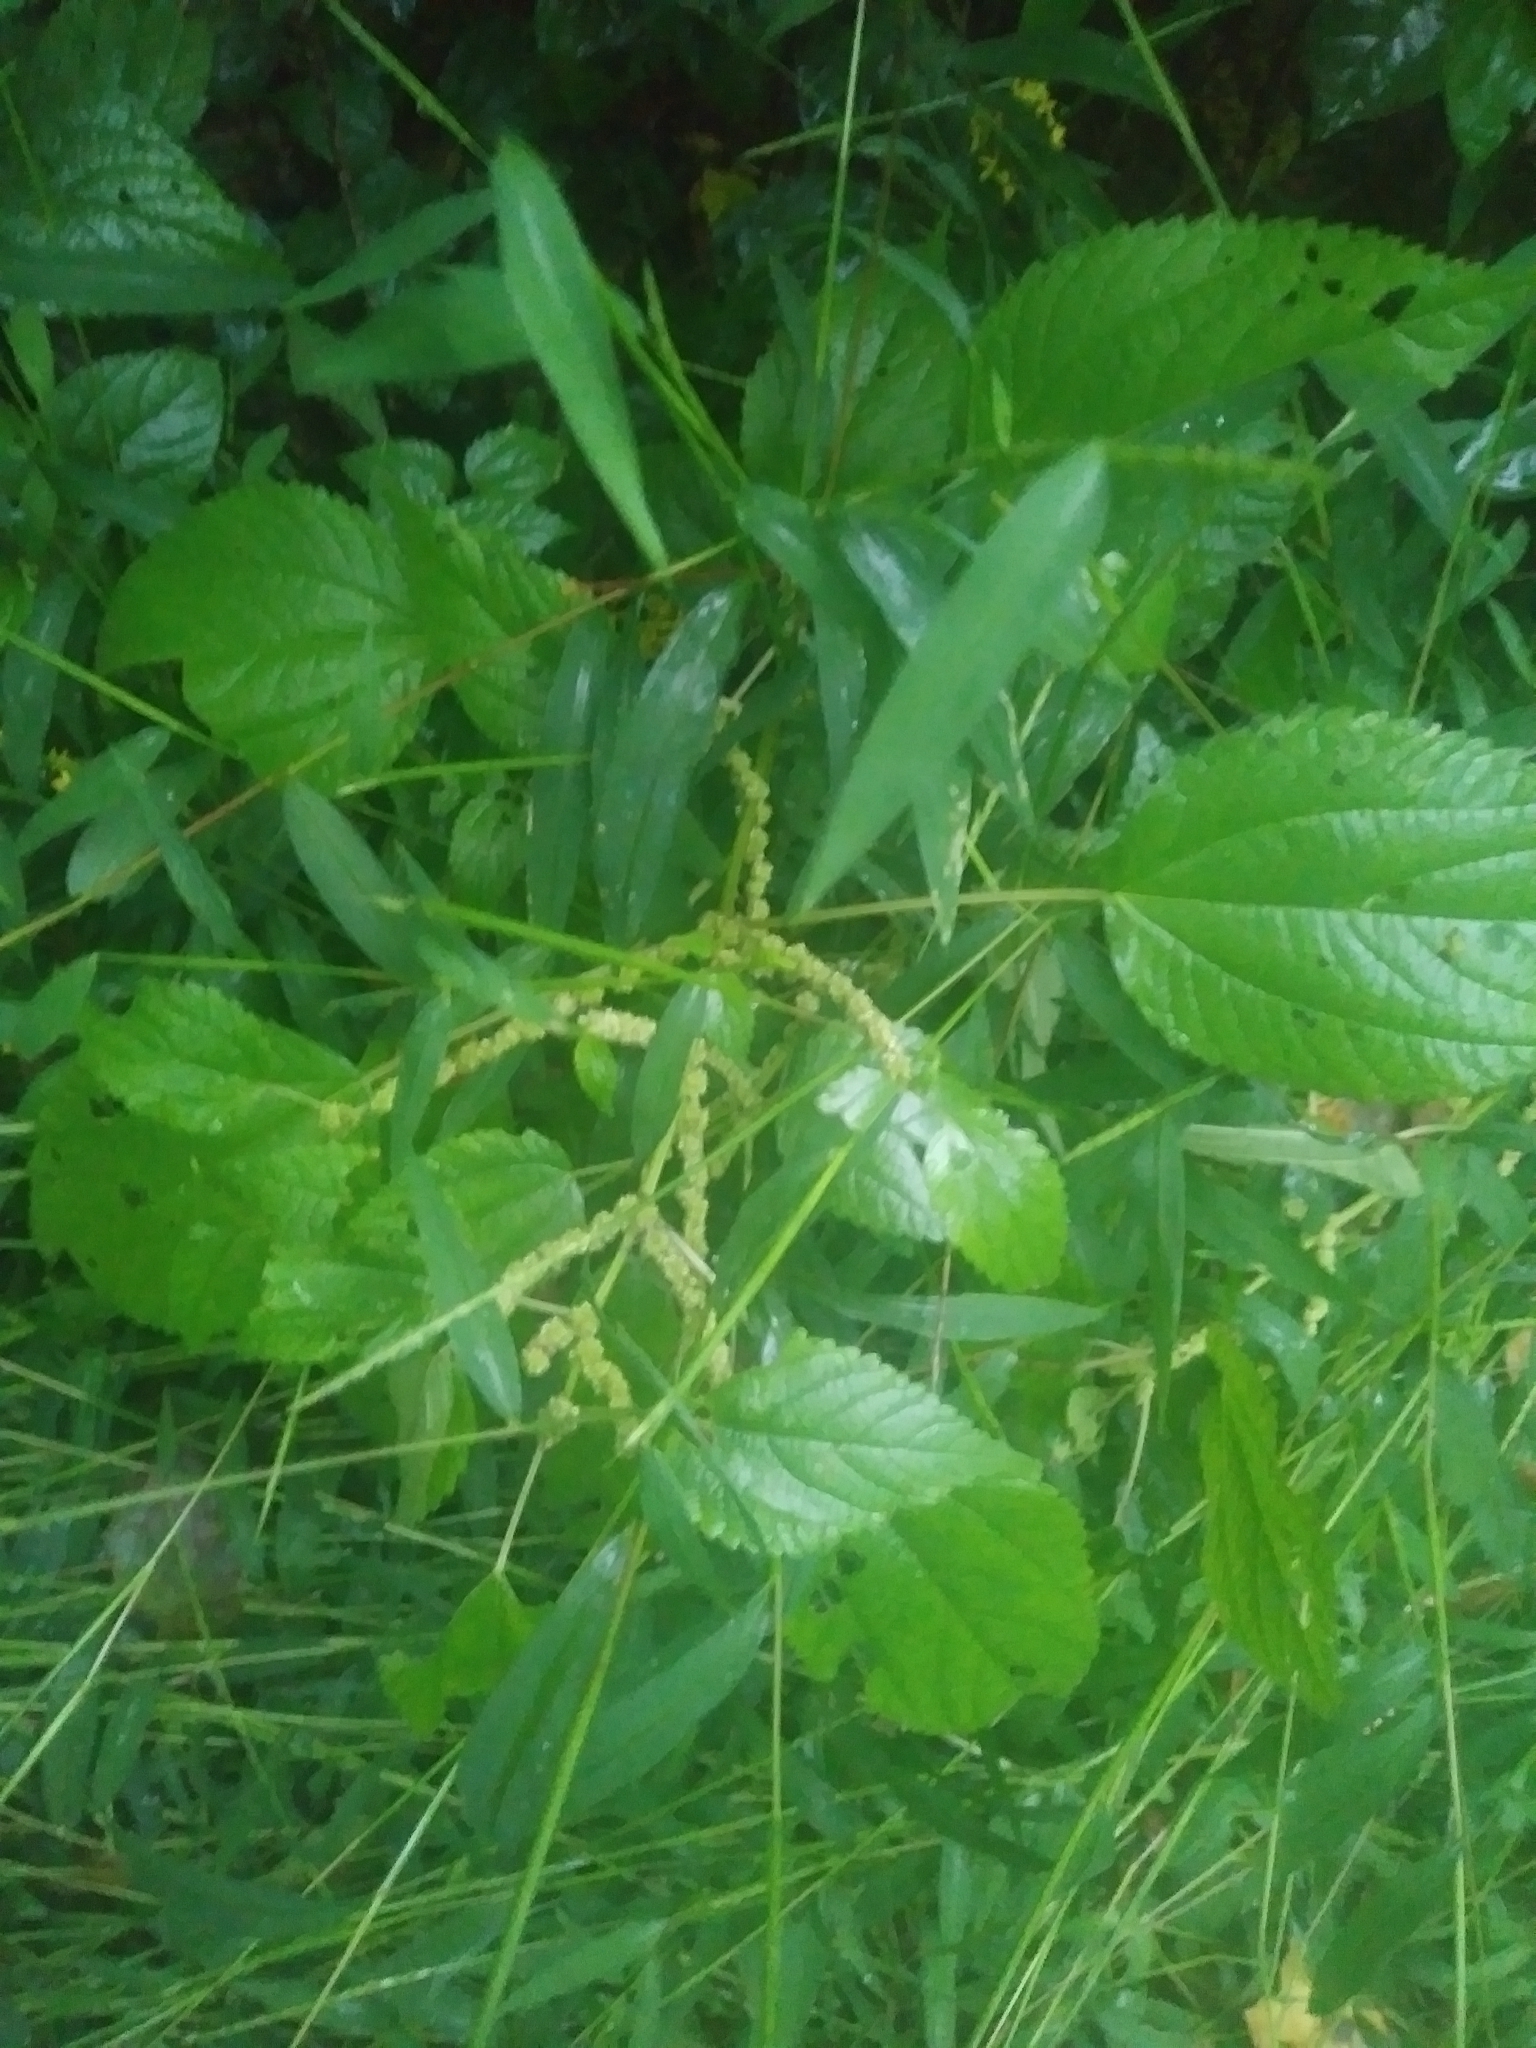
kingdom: Plantae
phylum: Tracheophyta
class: Magnoliopsida
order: Rosales
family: Urticaceae
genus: Boehmeria
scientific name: Boehmeria cylindrica
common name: Bog-hemp
